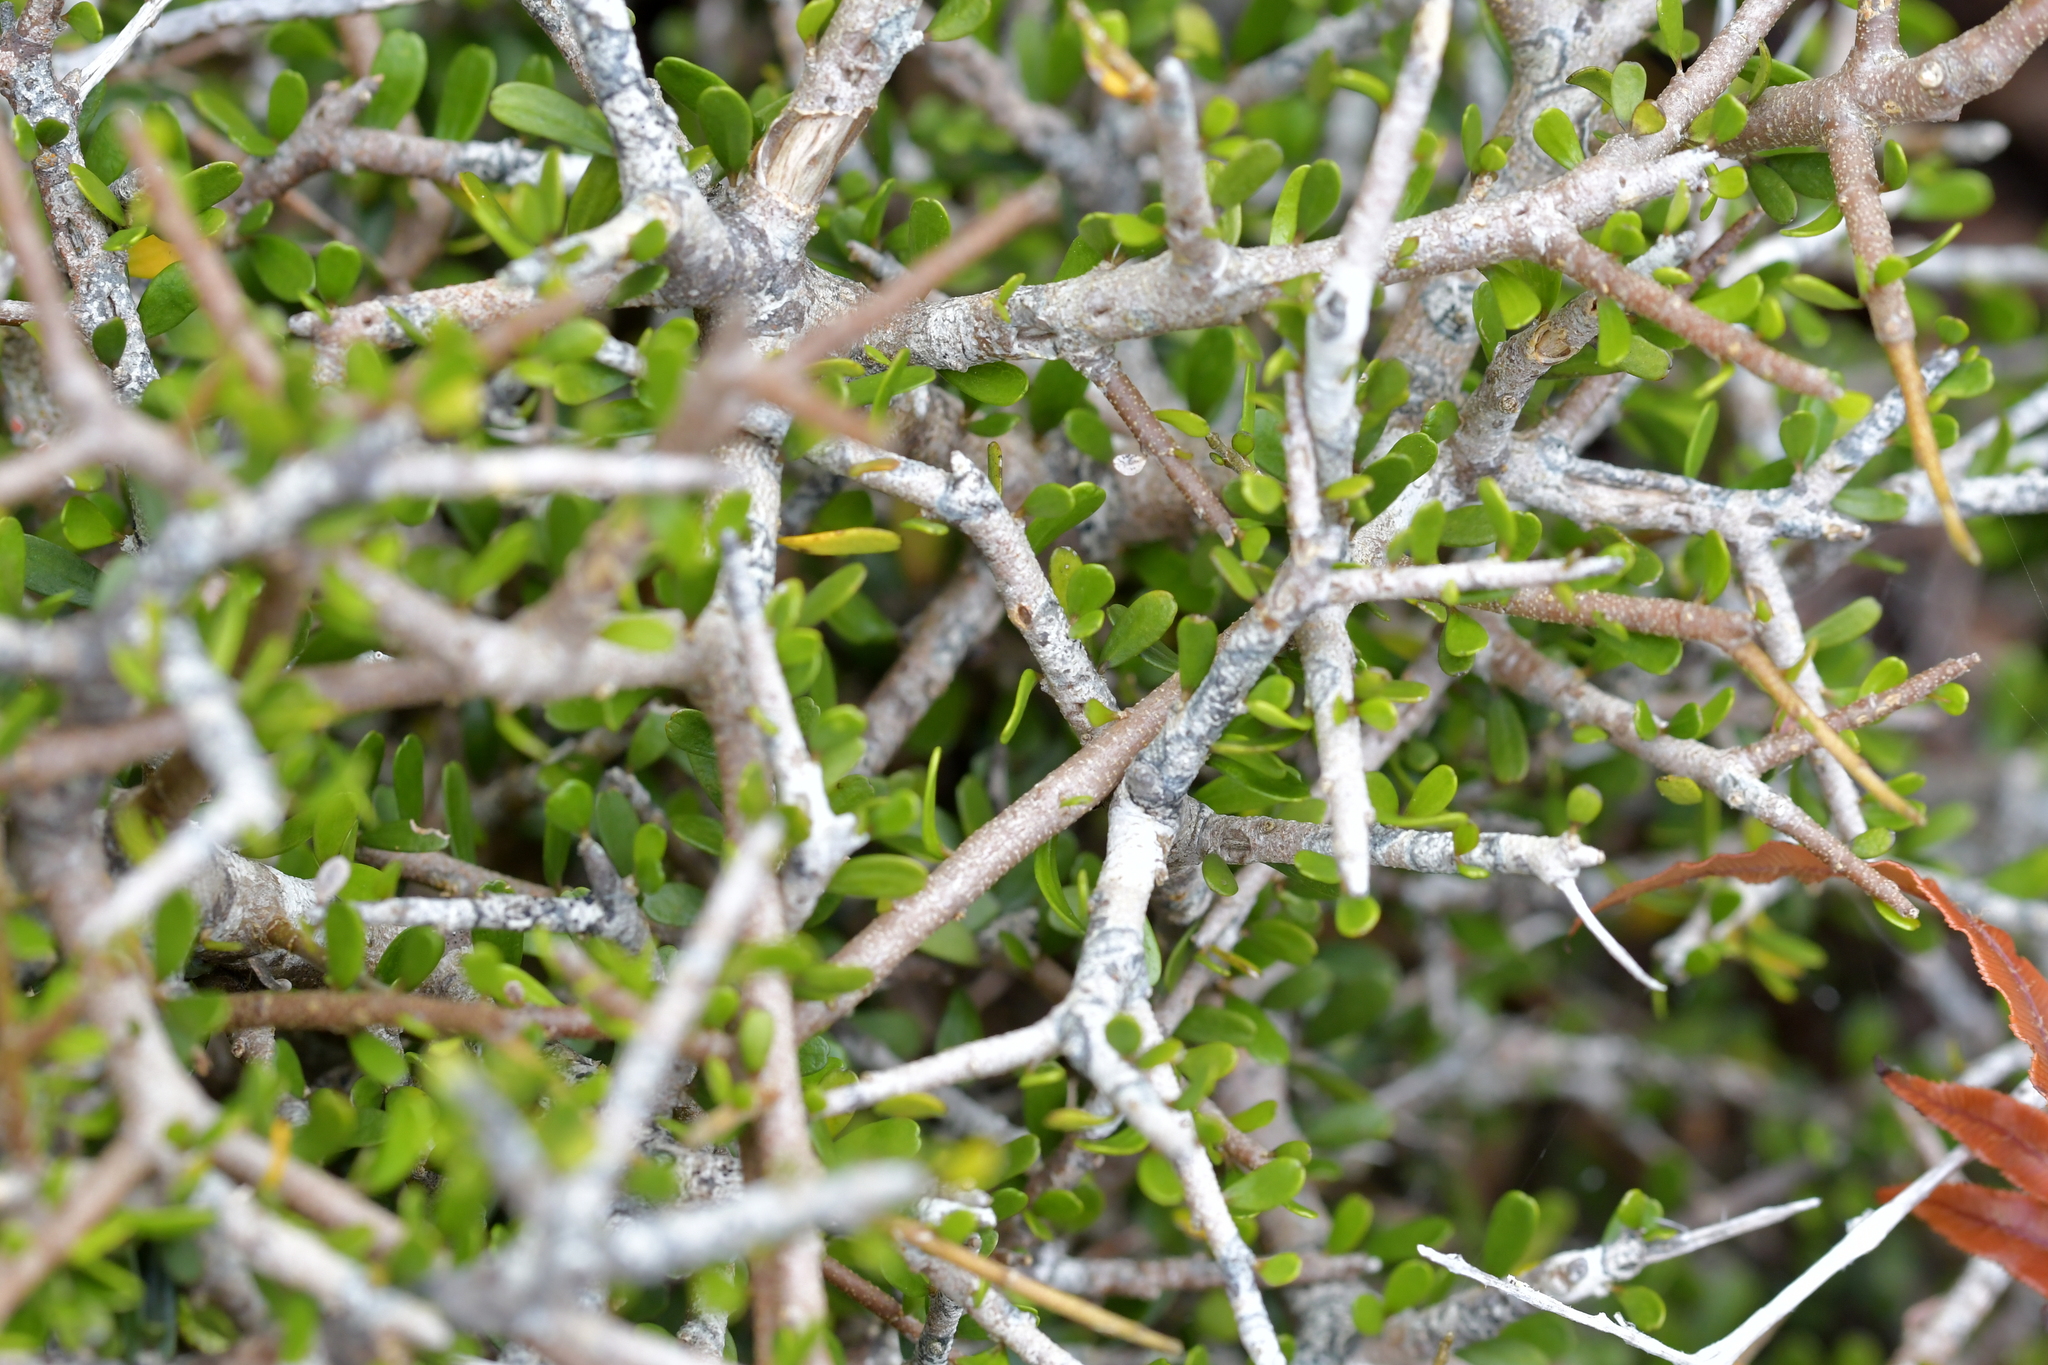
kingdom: Plantae
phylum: Tracheophyta
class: Magnoliopsida
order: Malpighiales
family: Violaceae
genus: Melicytus
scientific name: Melicytus alpinus
